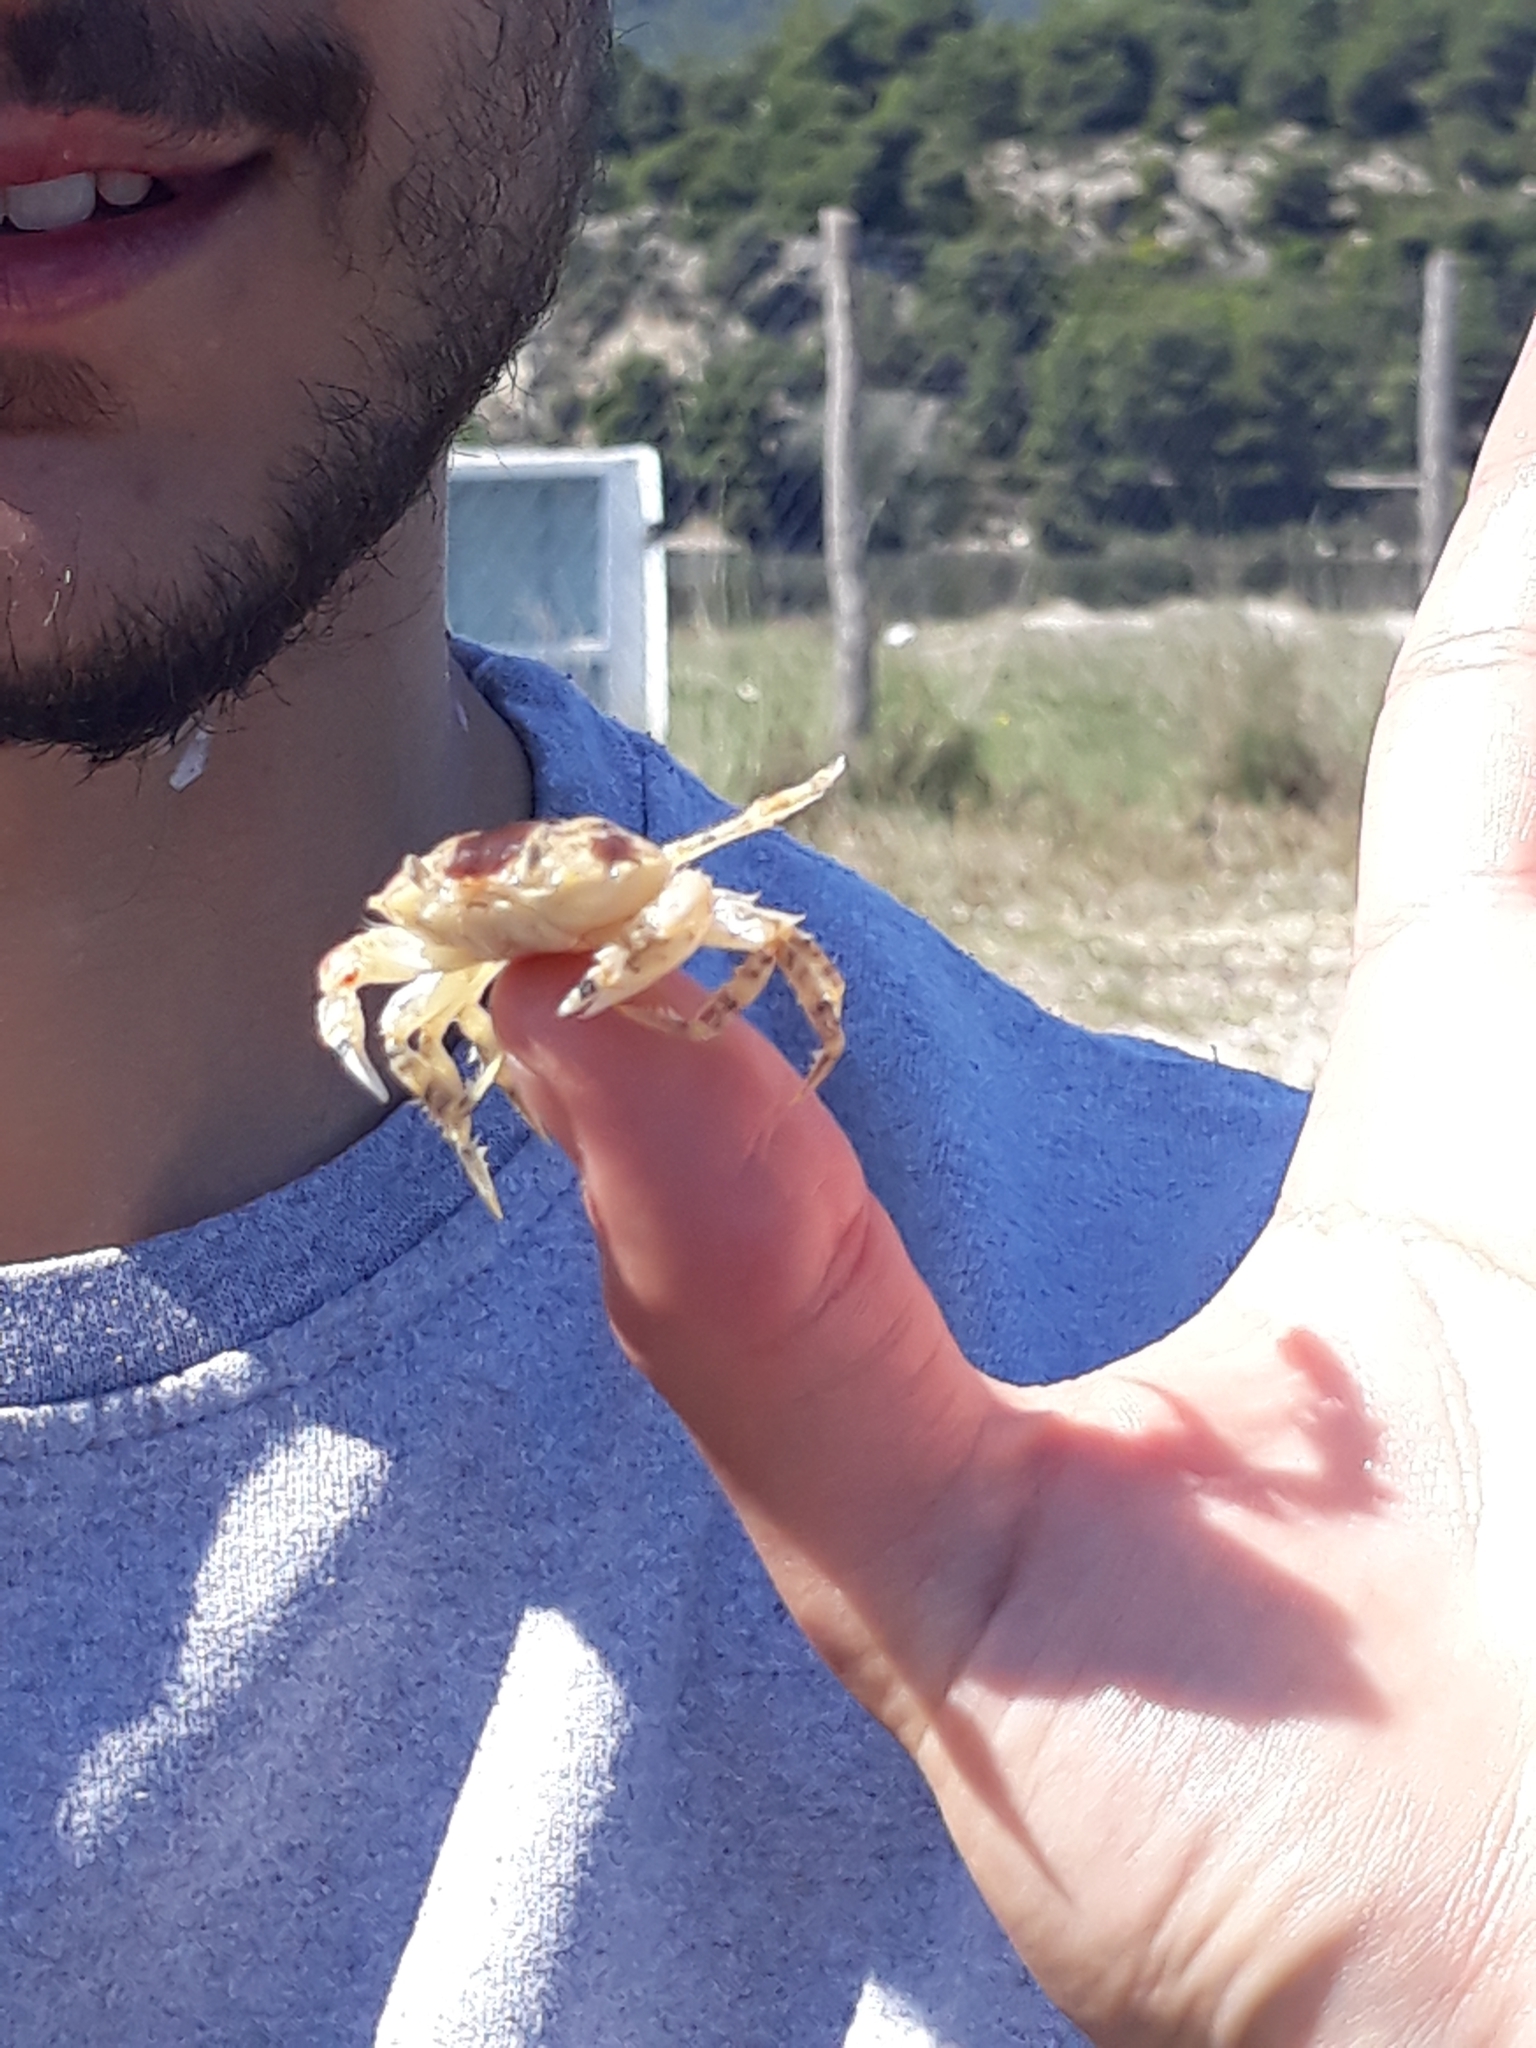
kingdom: Animalia
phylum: Arthropoda
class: Malacostraca
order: Decapoda
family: Carcinidae
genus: Portumnus
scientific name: Portumnus lysianassa
